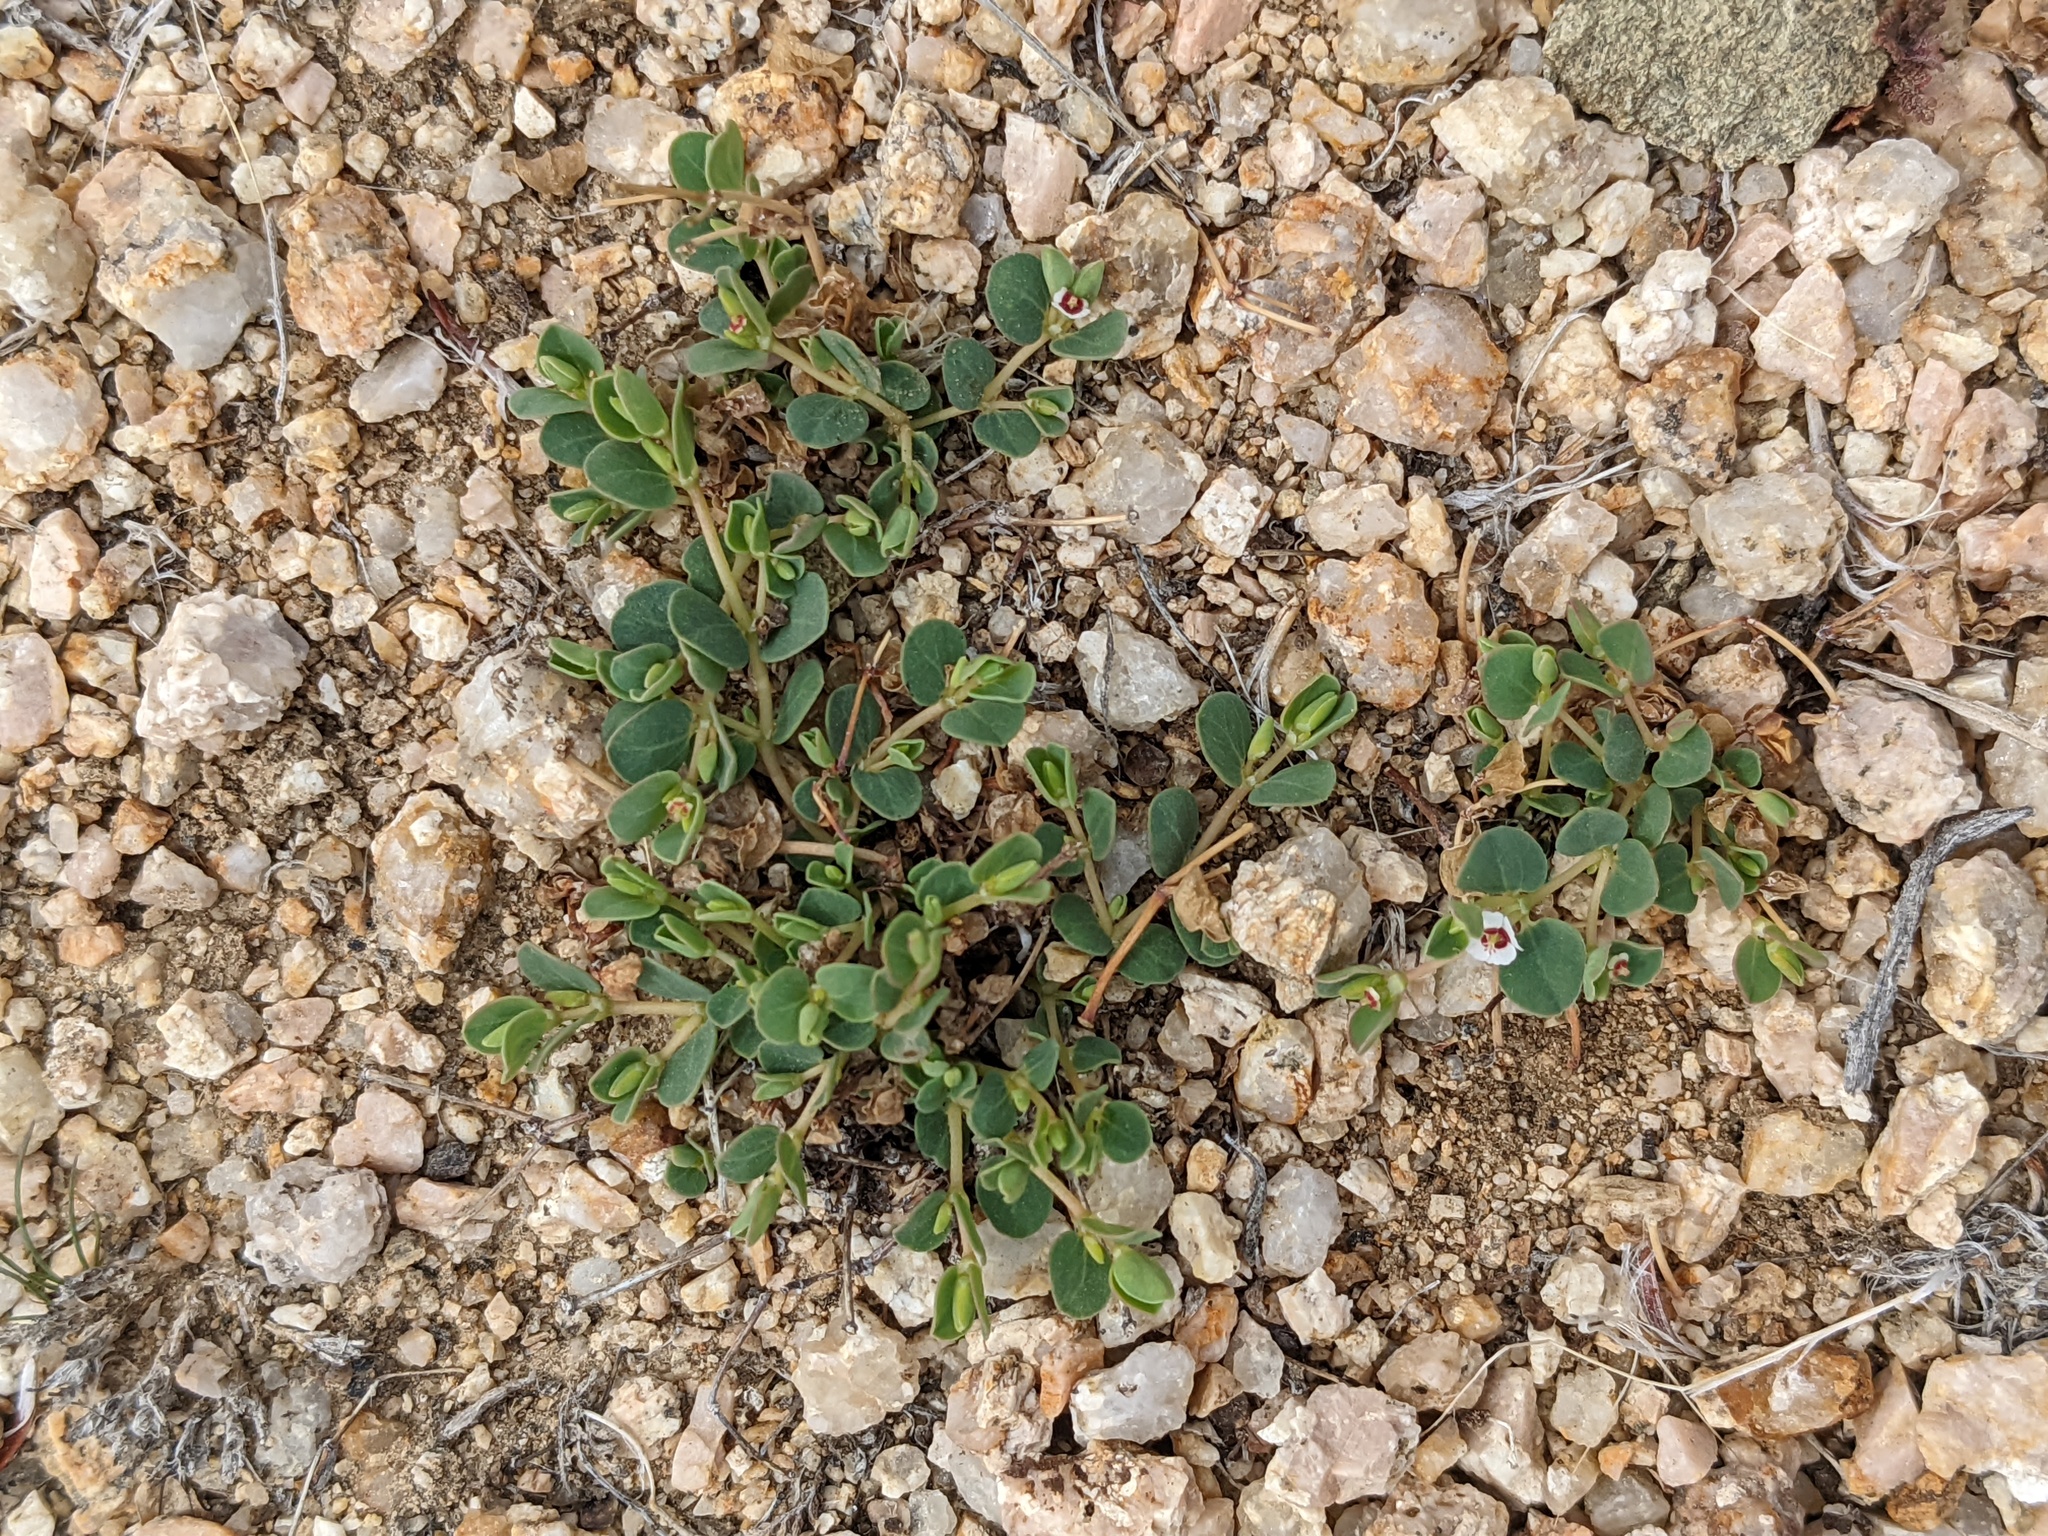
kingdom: Plantae
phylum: Tracheophyta
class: Magnoliopsida
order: Malpighiales
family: Euphorbiaceae
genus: Euphorbia
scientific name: Euphorbia albomarginata
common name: Whitemargin sandmat
